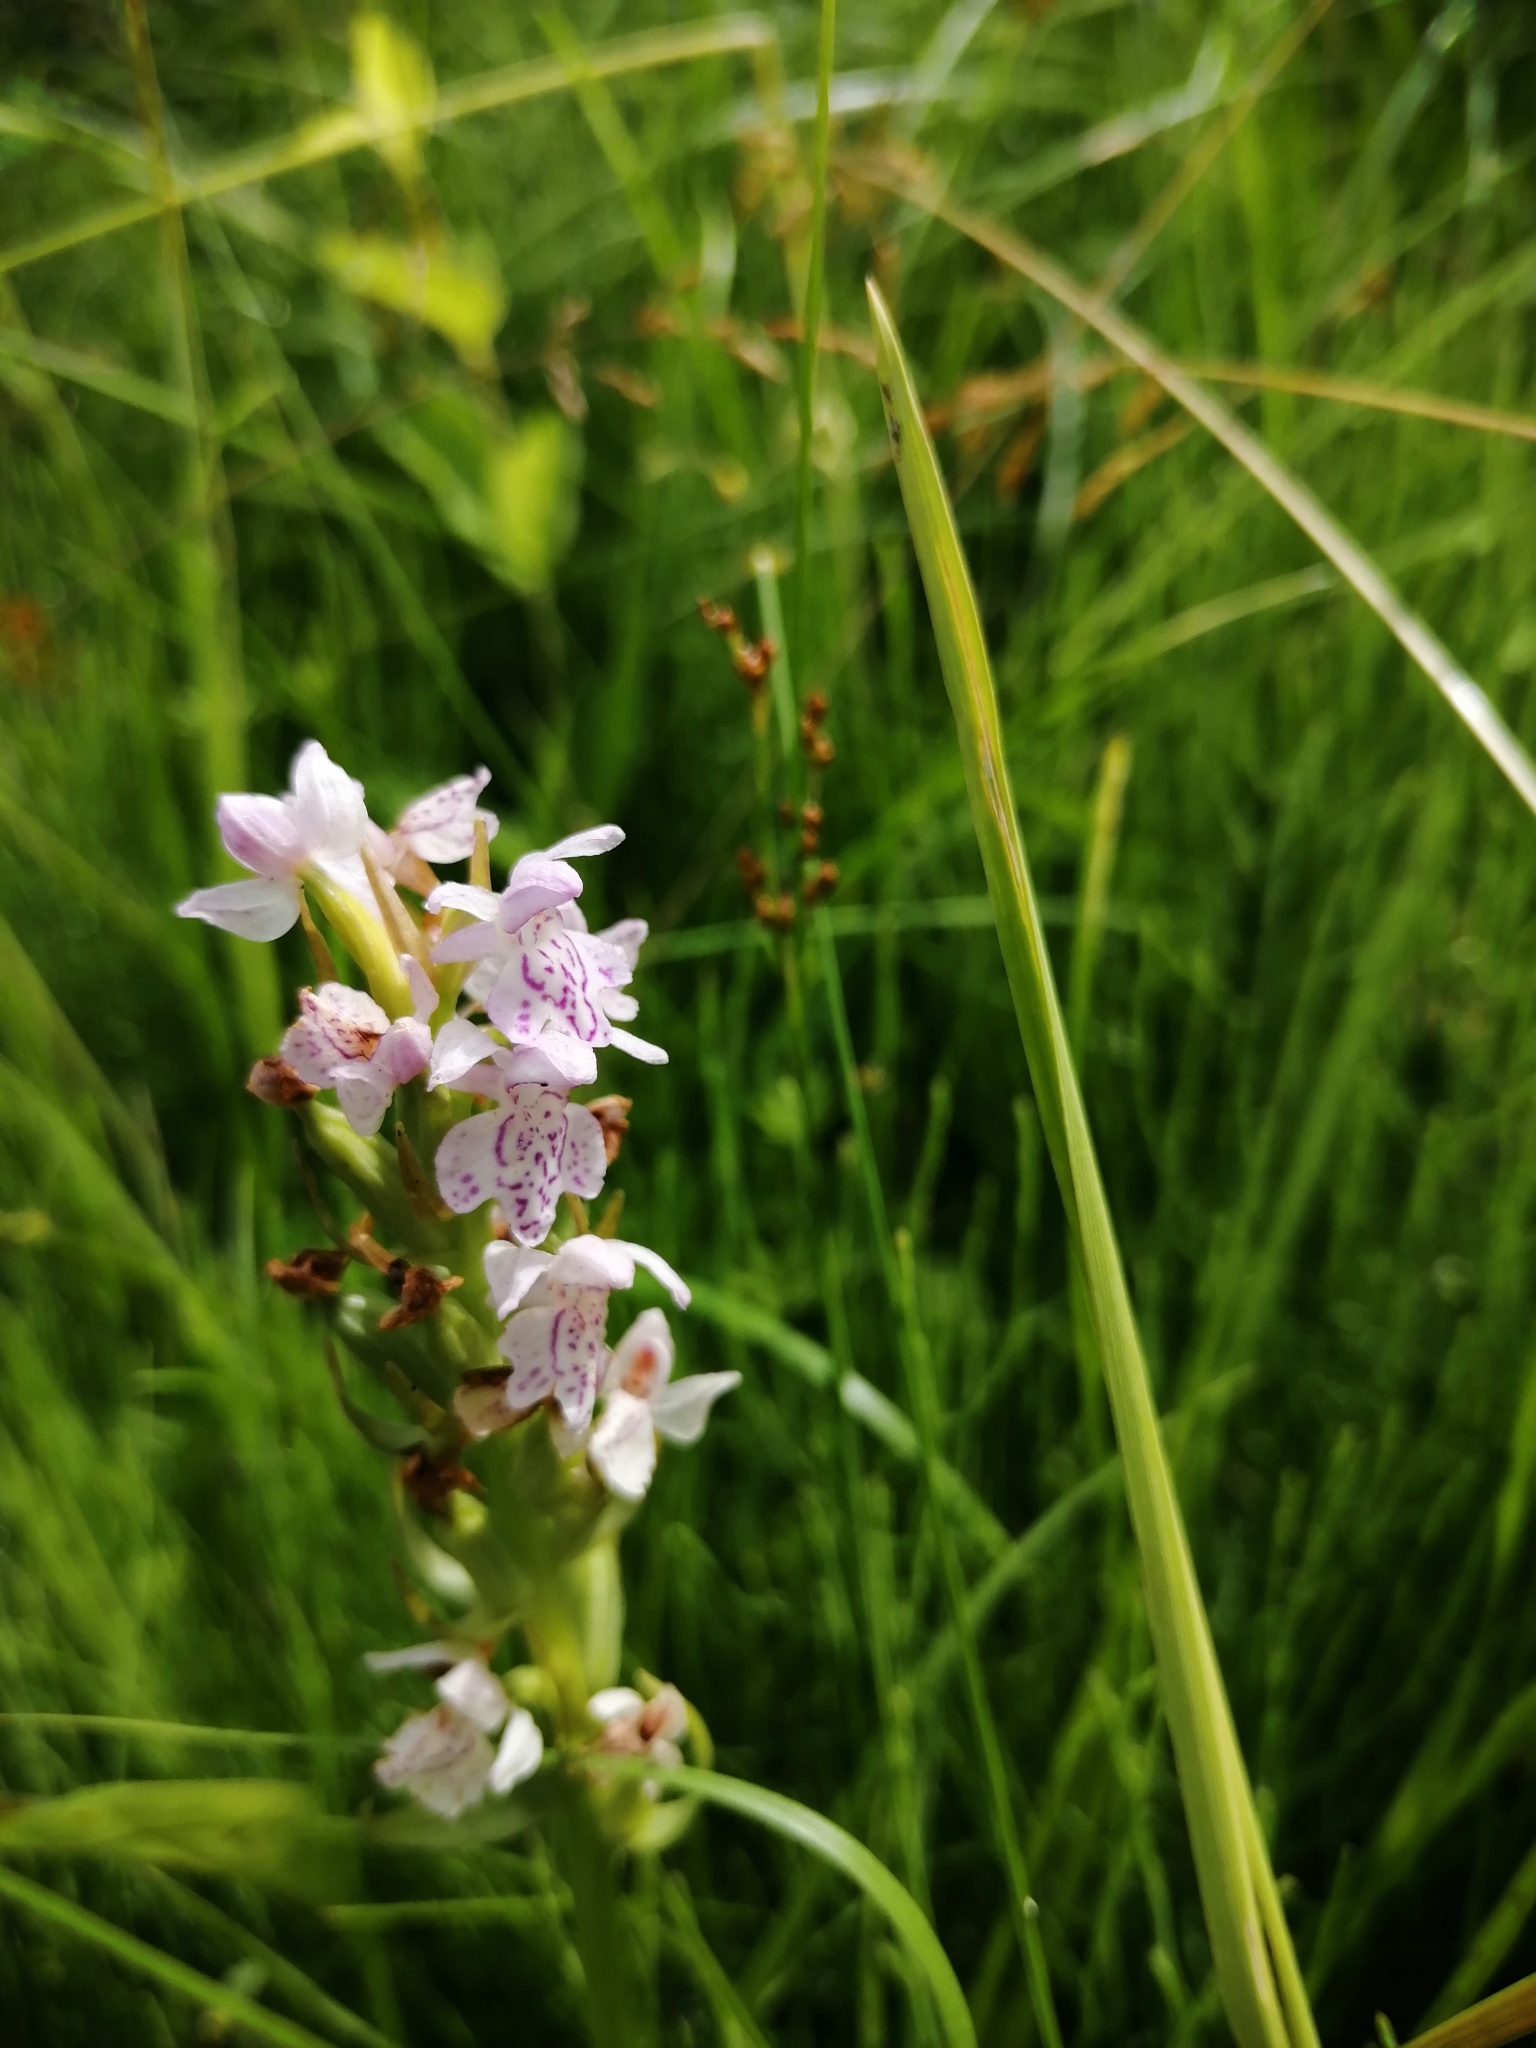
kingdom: Plantae
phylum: Tracheophyta
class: Liliopsida
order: Asparagales
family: Orchidaceae
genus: Dactylorhiza
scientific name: Dactylorhiza majalis
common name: Marsh orchid
